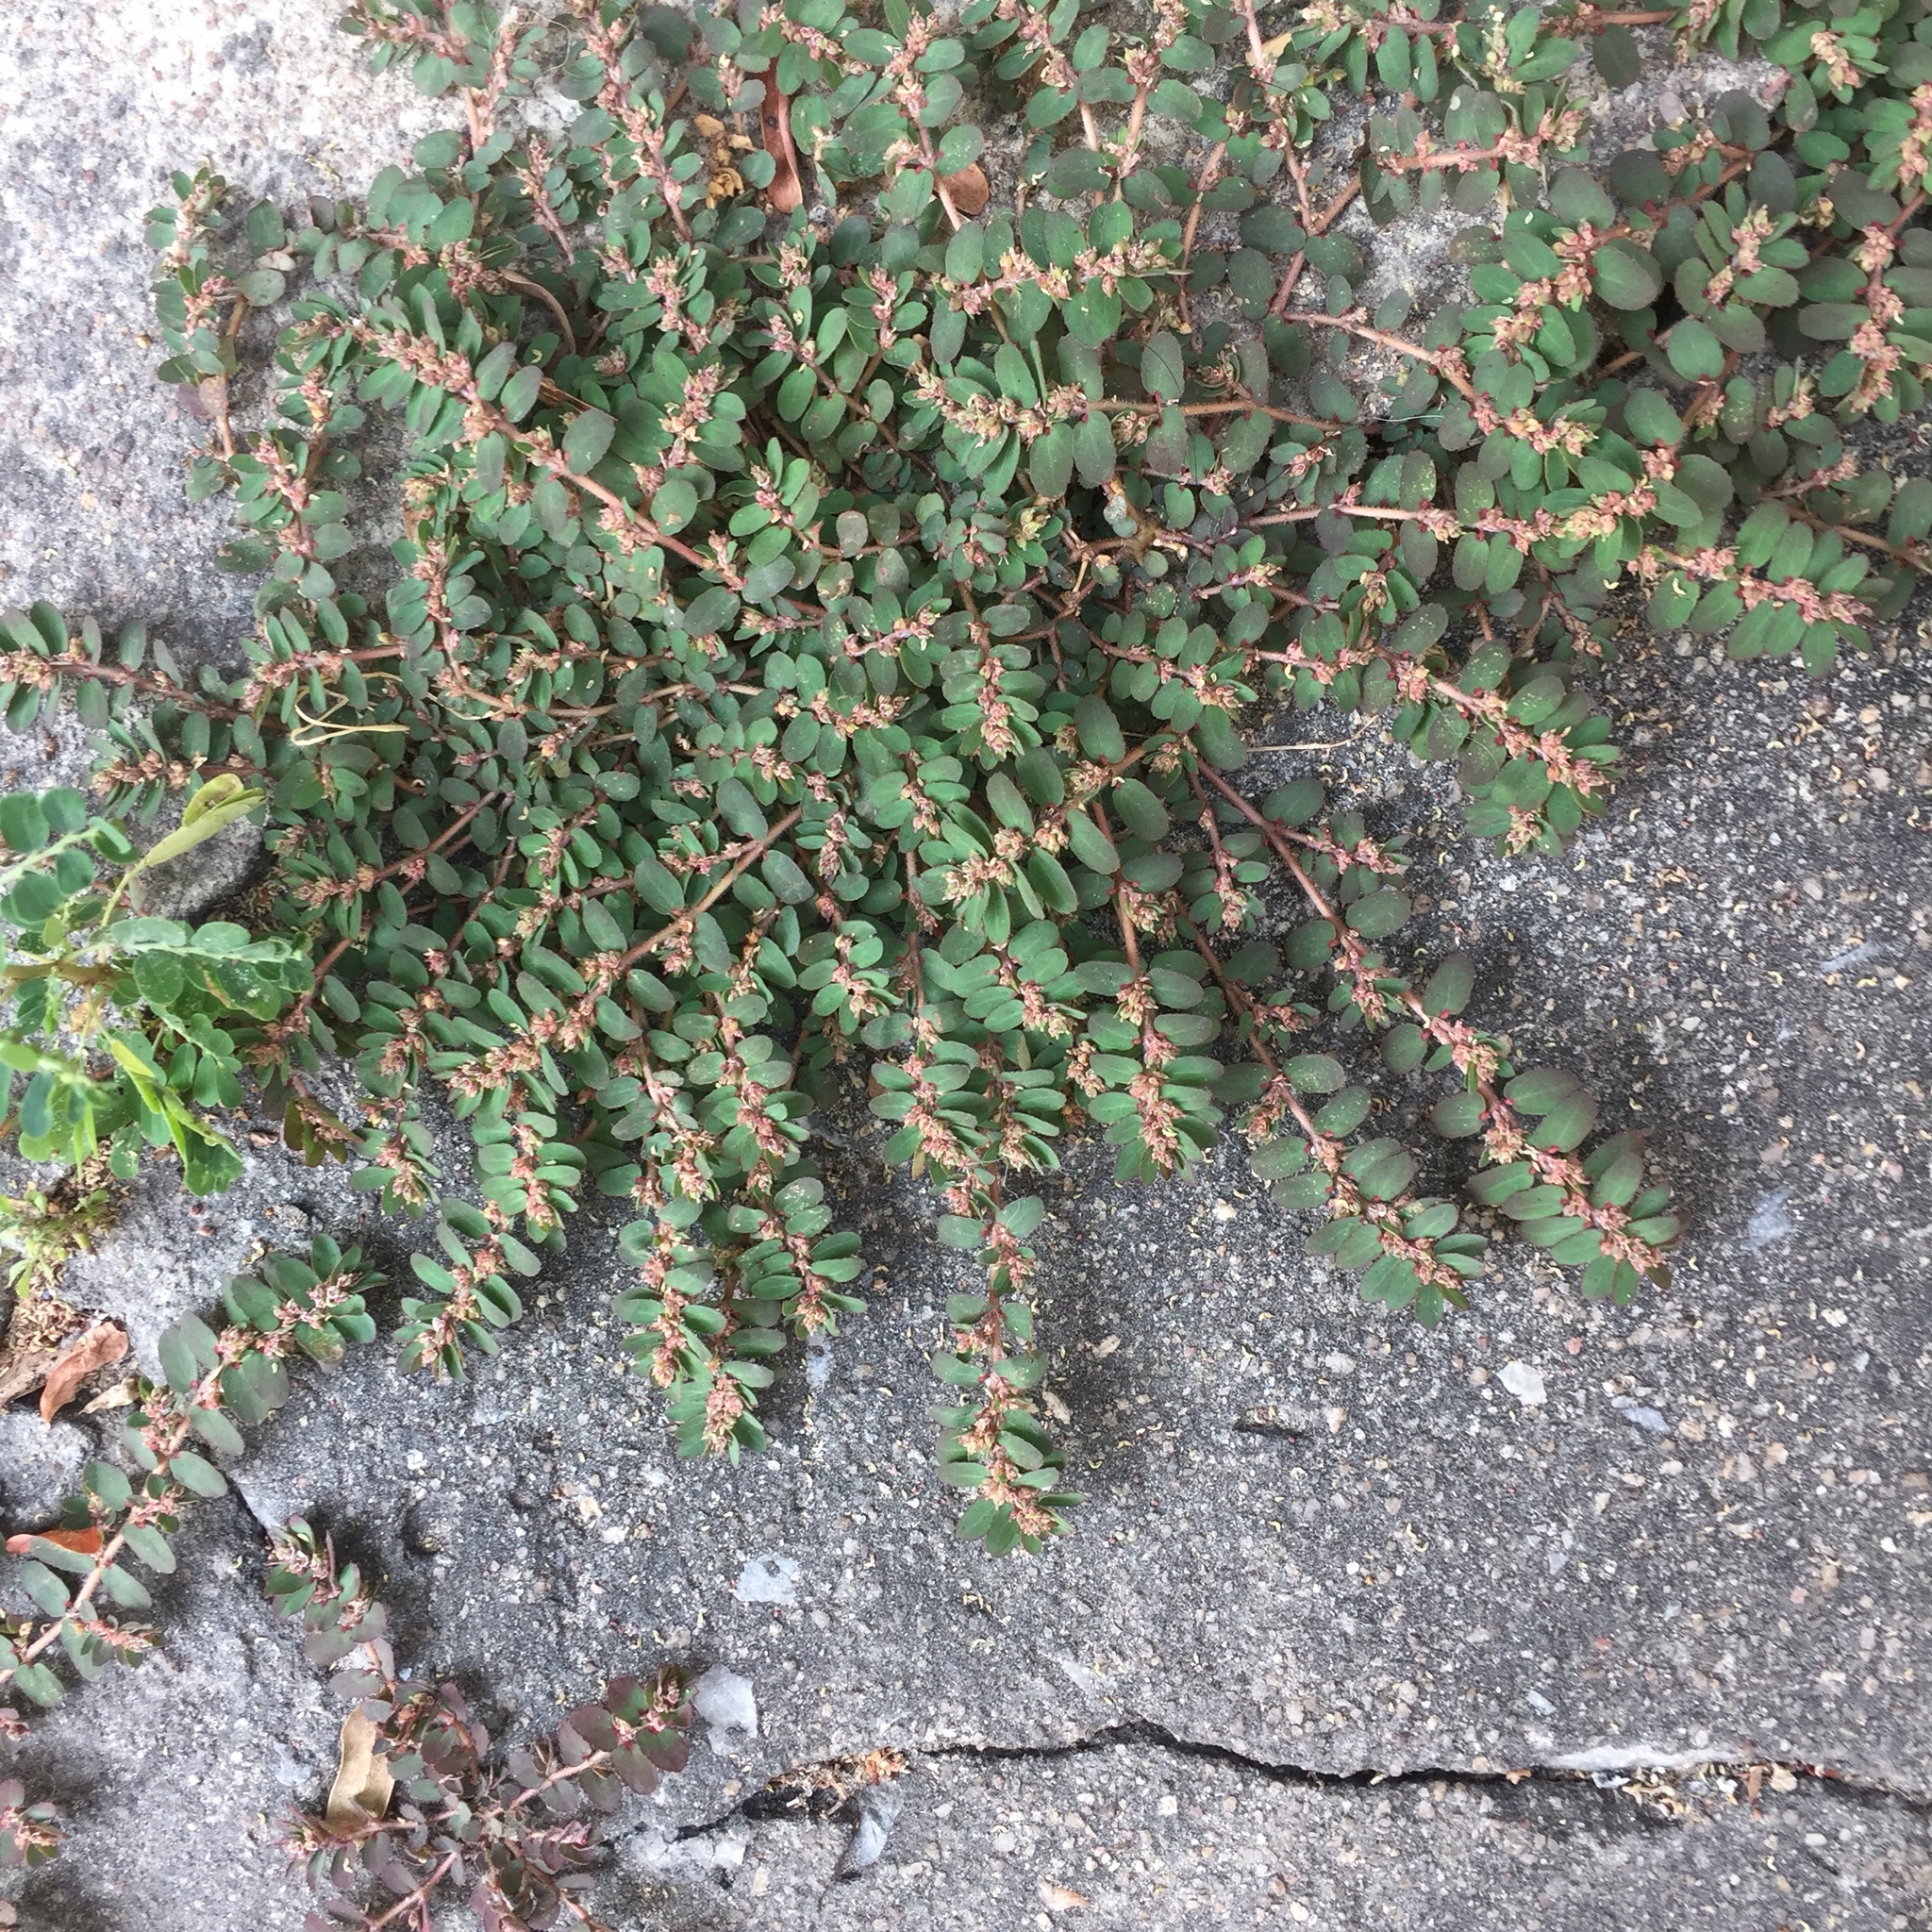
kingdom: Plantae
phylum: Tracheophyta
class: Magnoliopsida
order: Malpighiales
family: Euphorbiaceae
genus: Euphorbia
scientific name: Euphorbia thymifolia
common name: Gulf sandmat
